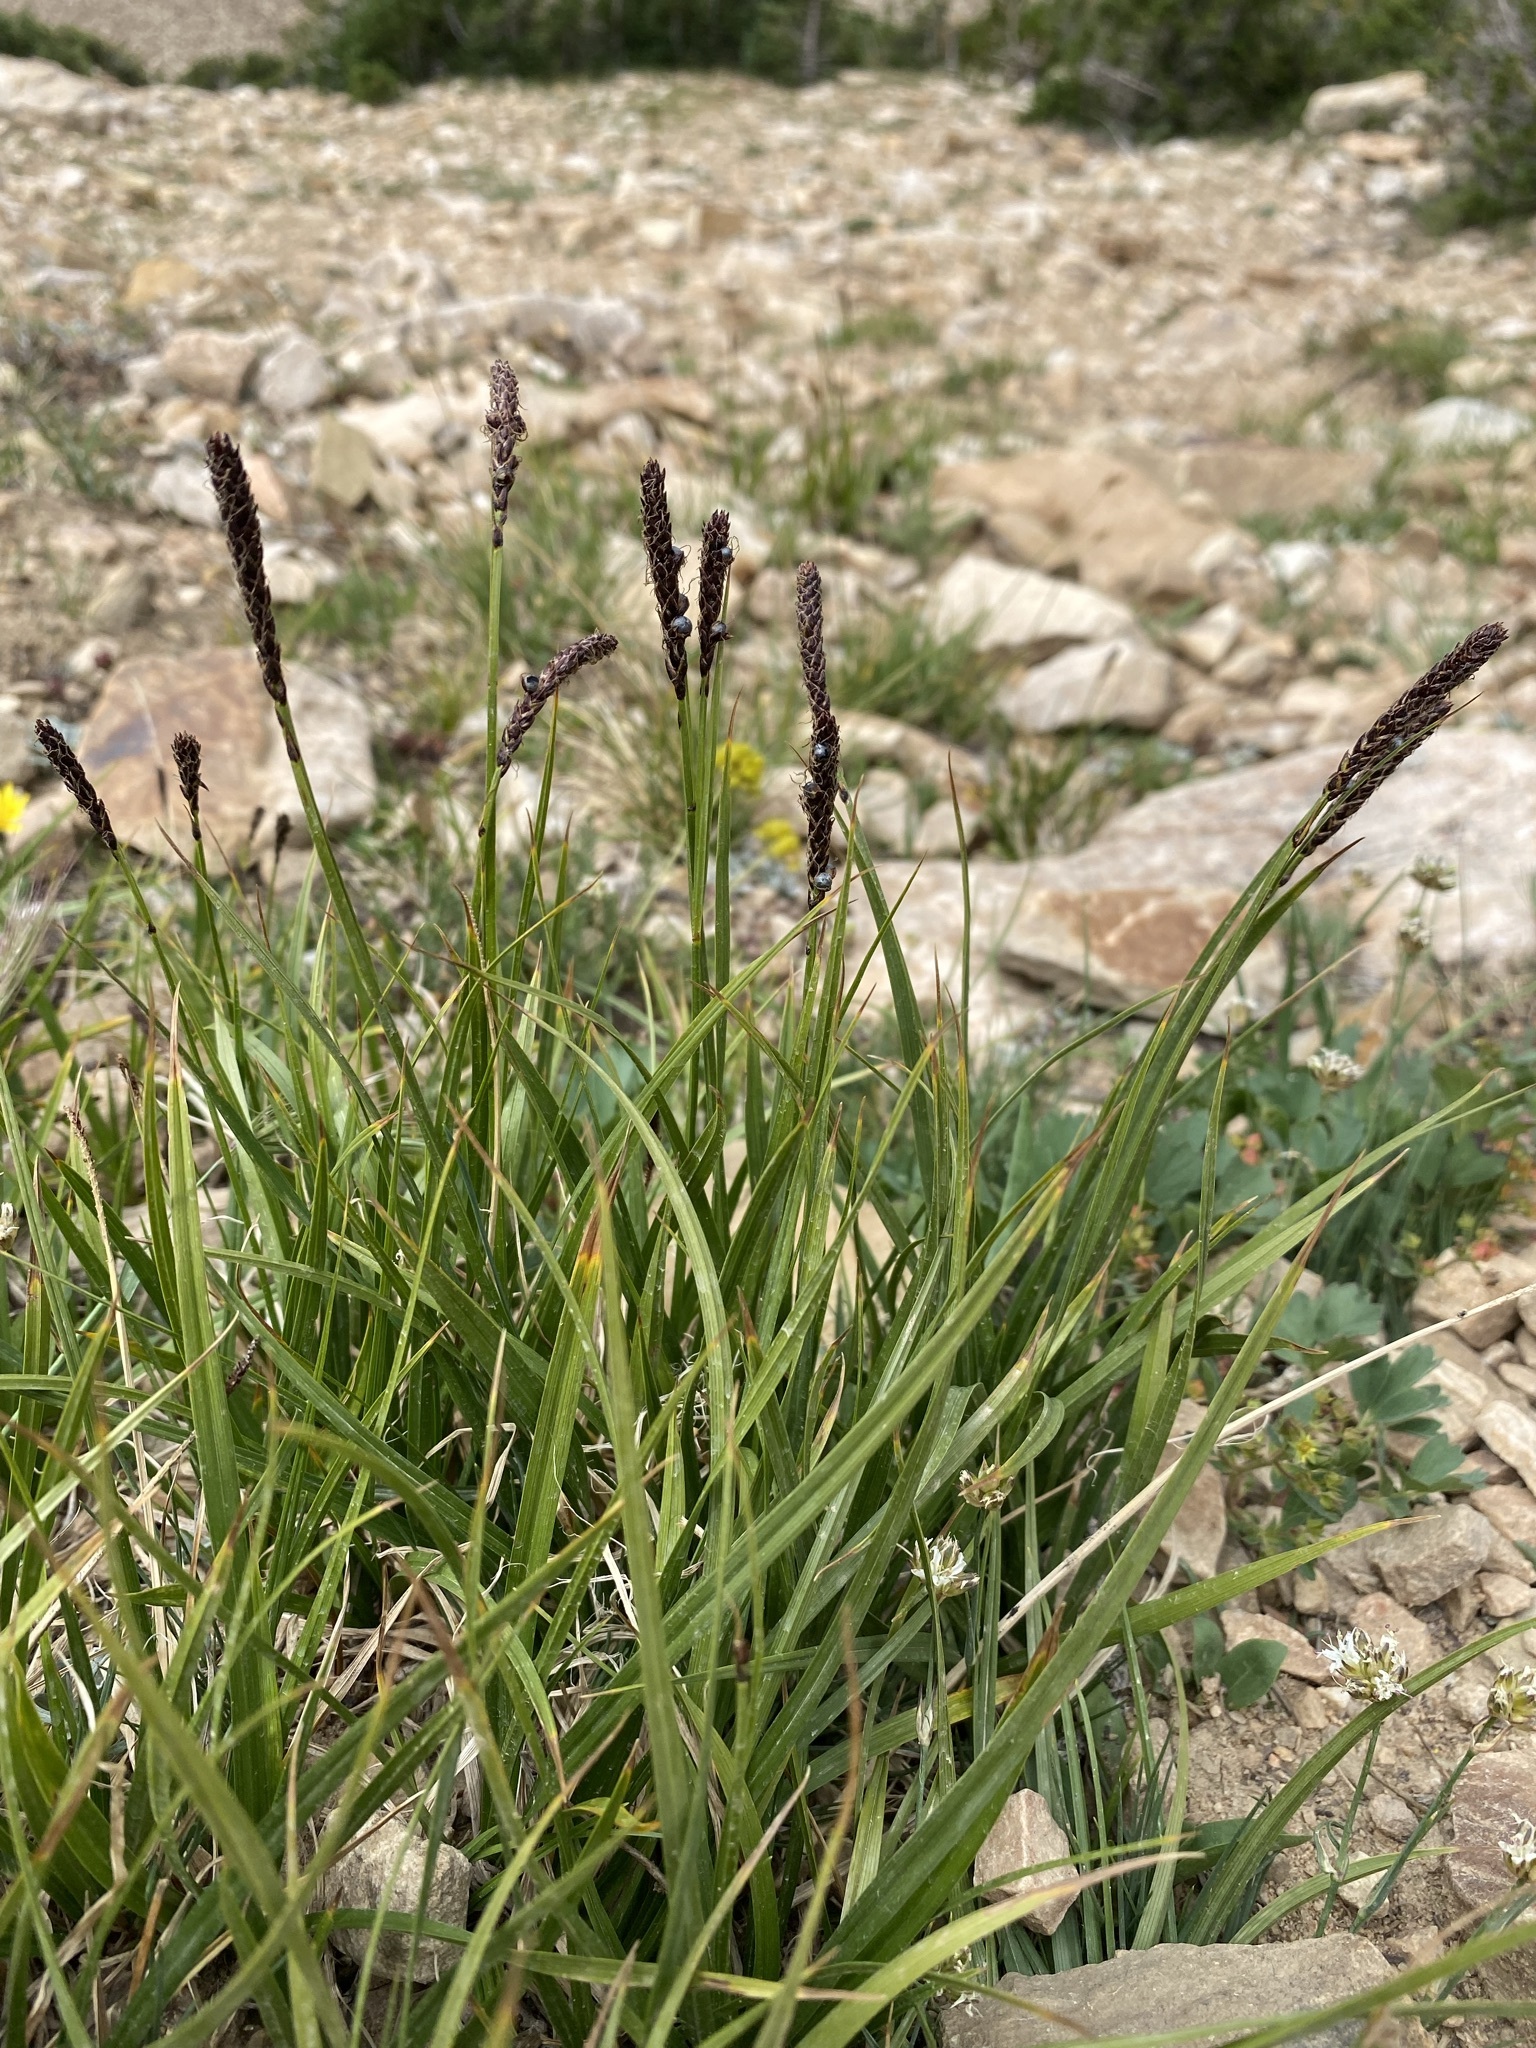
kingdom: Plantae
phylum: Tracheophyta
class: Liliopsida
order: Poales
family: Cyperaceae
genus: Carex
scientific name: Carex scirpoidea
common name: Canada single-spike sedge
